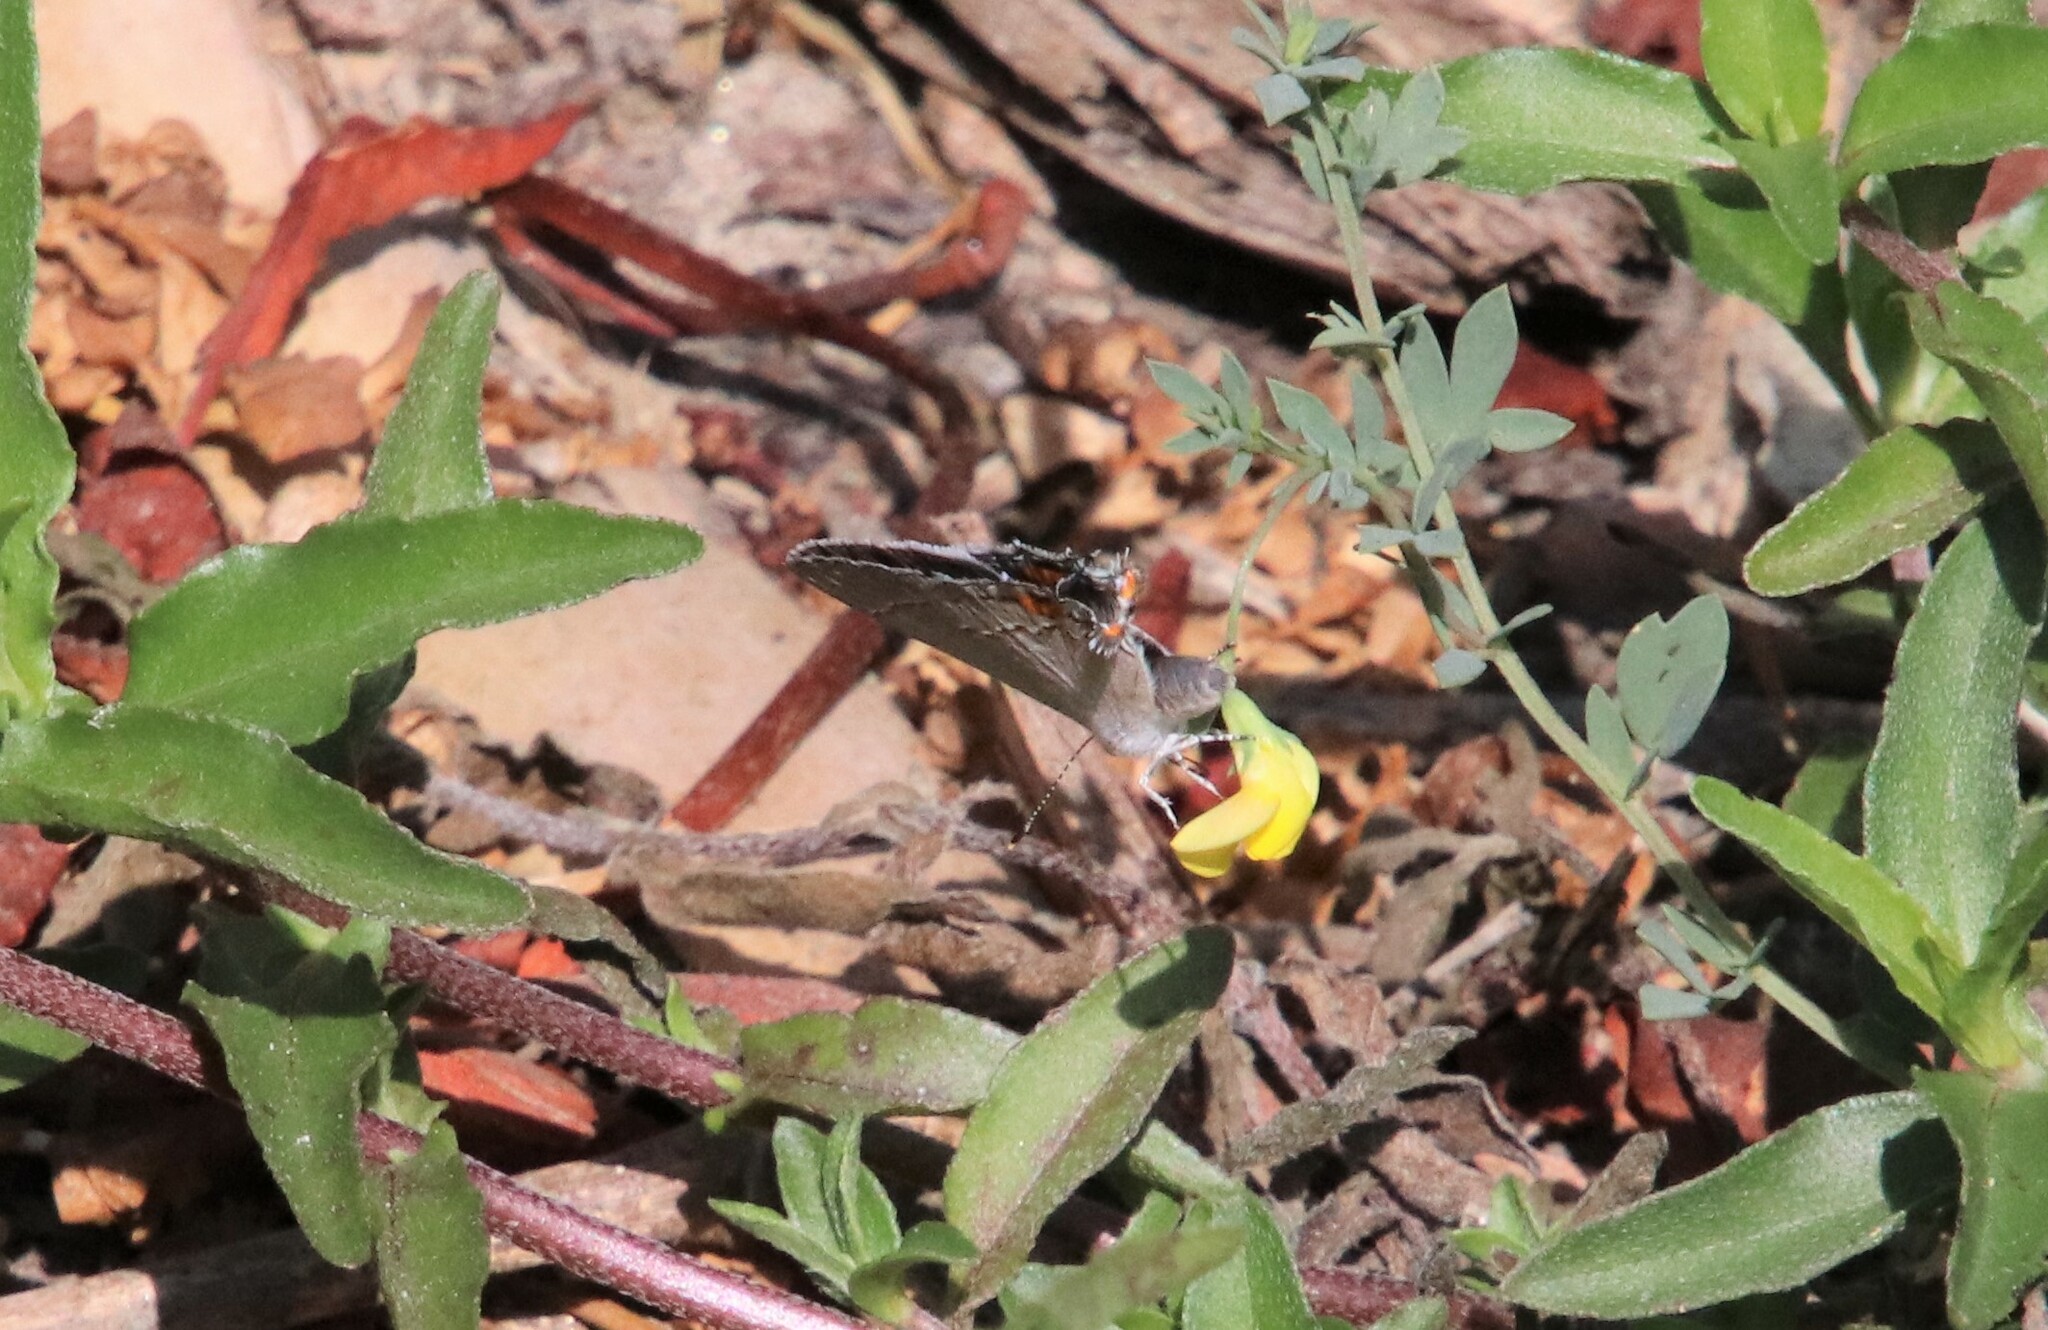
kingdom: Animalia
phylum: Arthropoda
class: Insecta
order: Lepidoptera
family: Lycaenidae
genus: Strymon
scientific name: Strymon melinus
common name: Gray hairstreak
